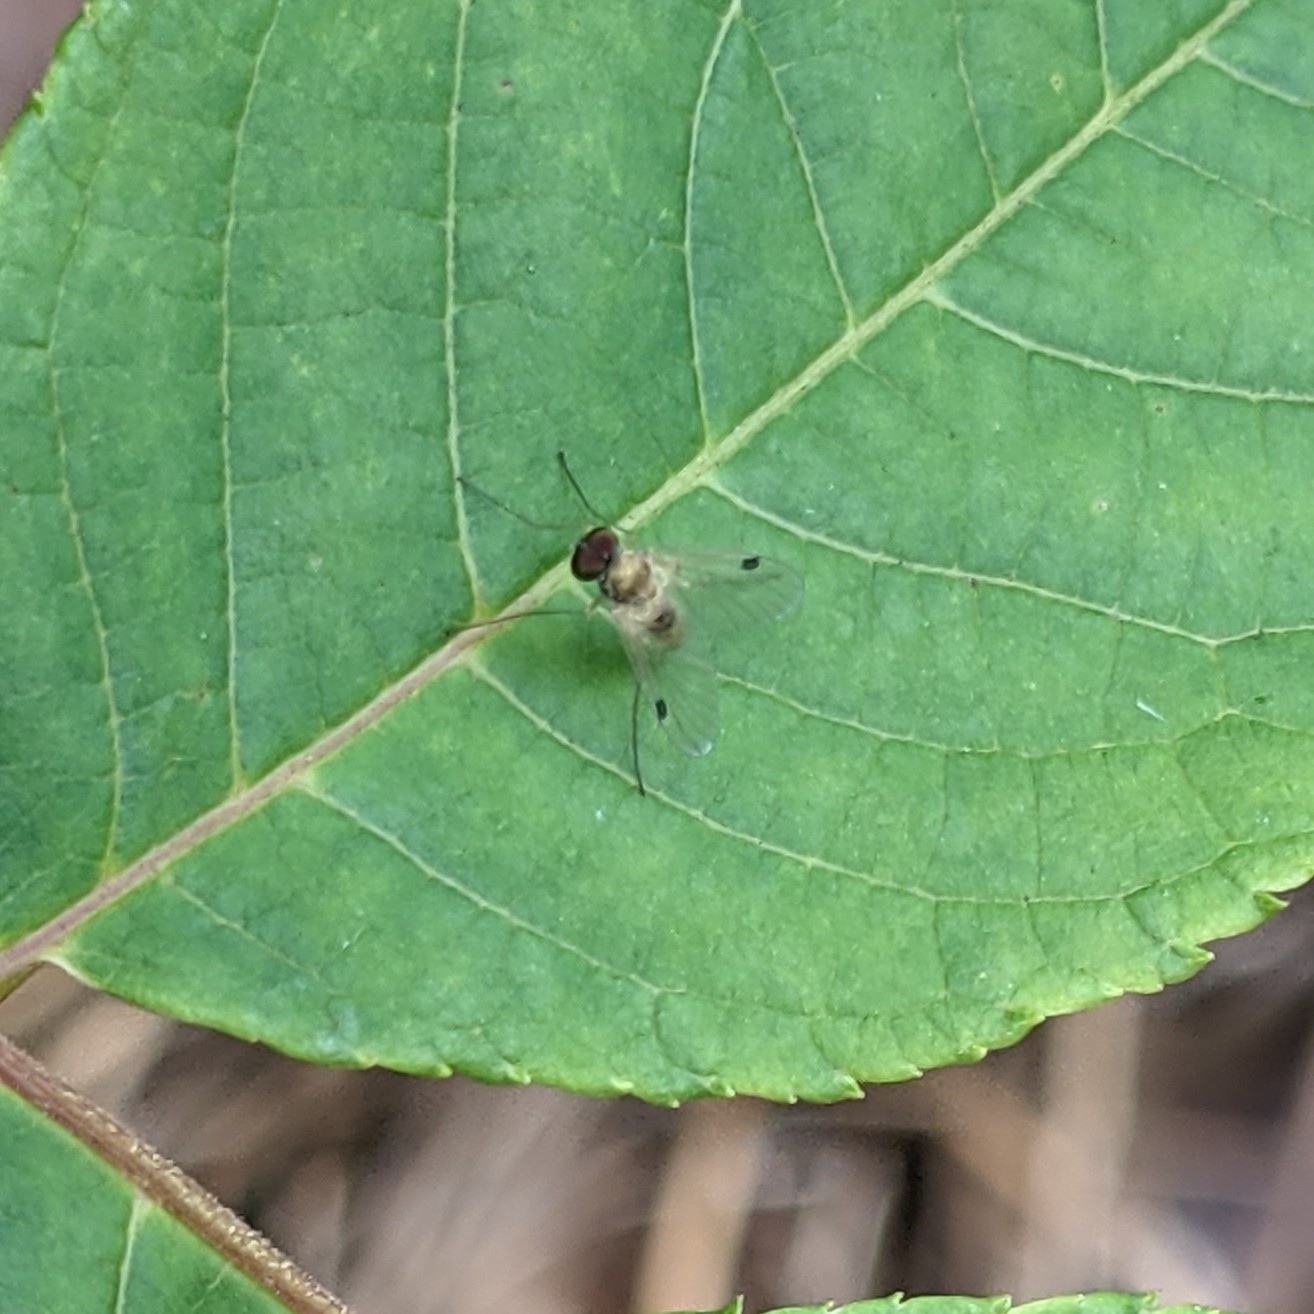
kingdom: Animalia
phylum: Arthropoda
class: Insecta
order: Diptera
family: Rhagionidae
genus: Chrysopilus
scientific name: Chrysopilus modestus
